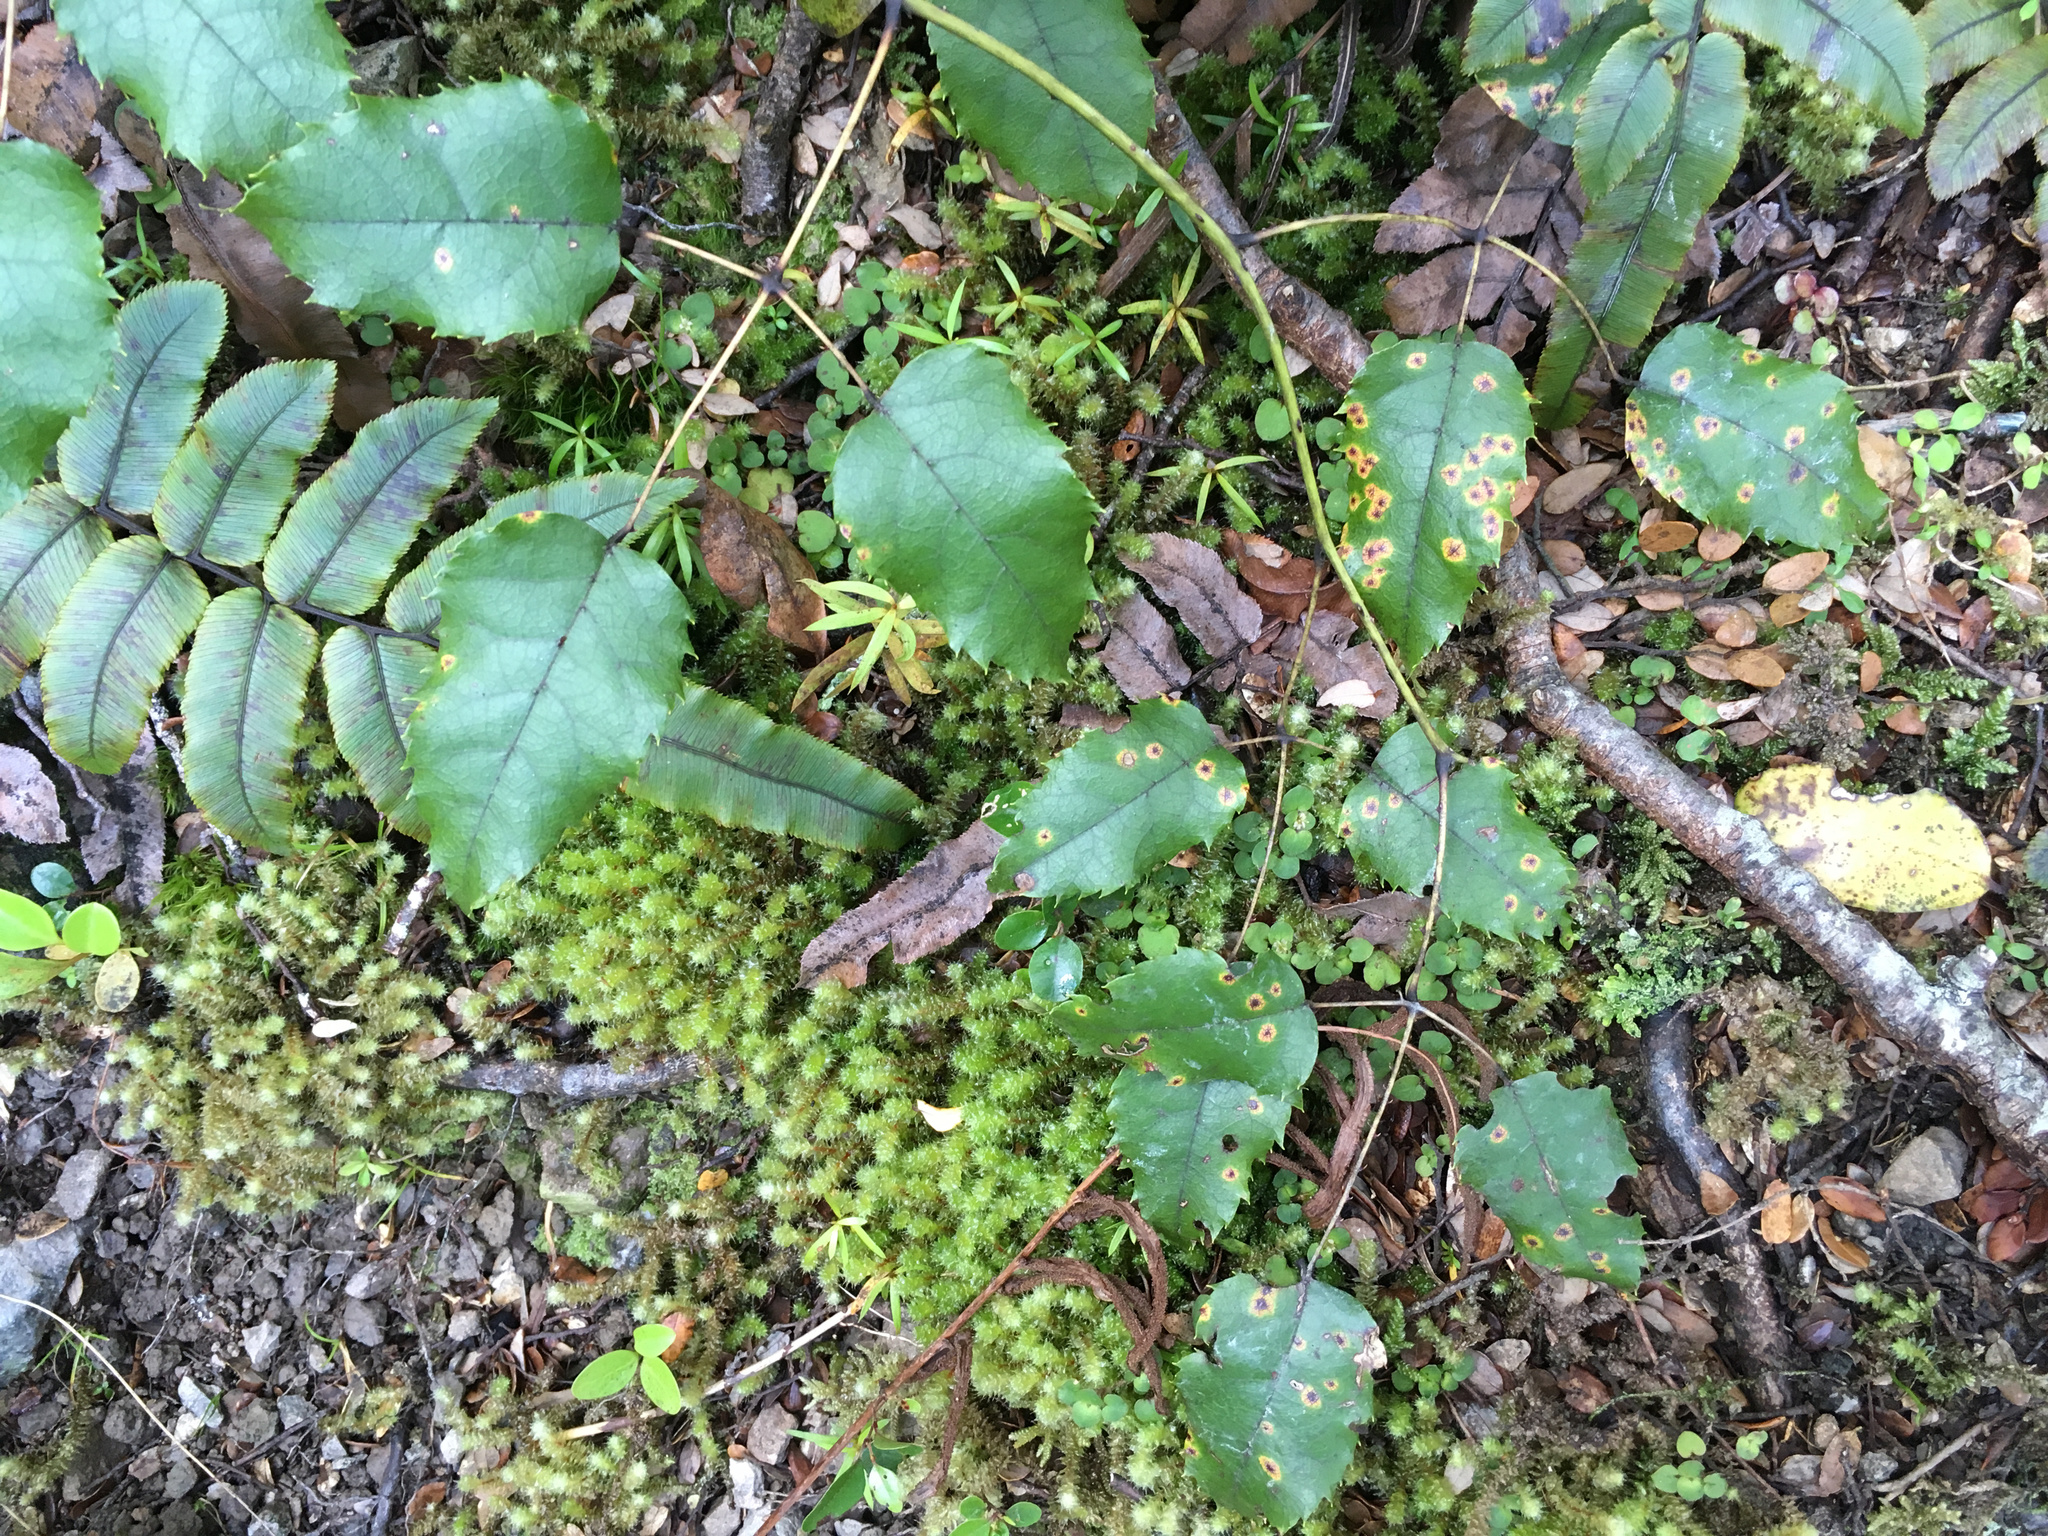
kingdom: Plantae
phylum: Tracheophyta
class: Magnoliopsida
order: Rosales
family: Rosaceae
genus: Rubus
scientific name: Rubus cissoides
